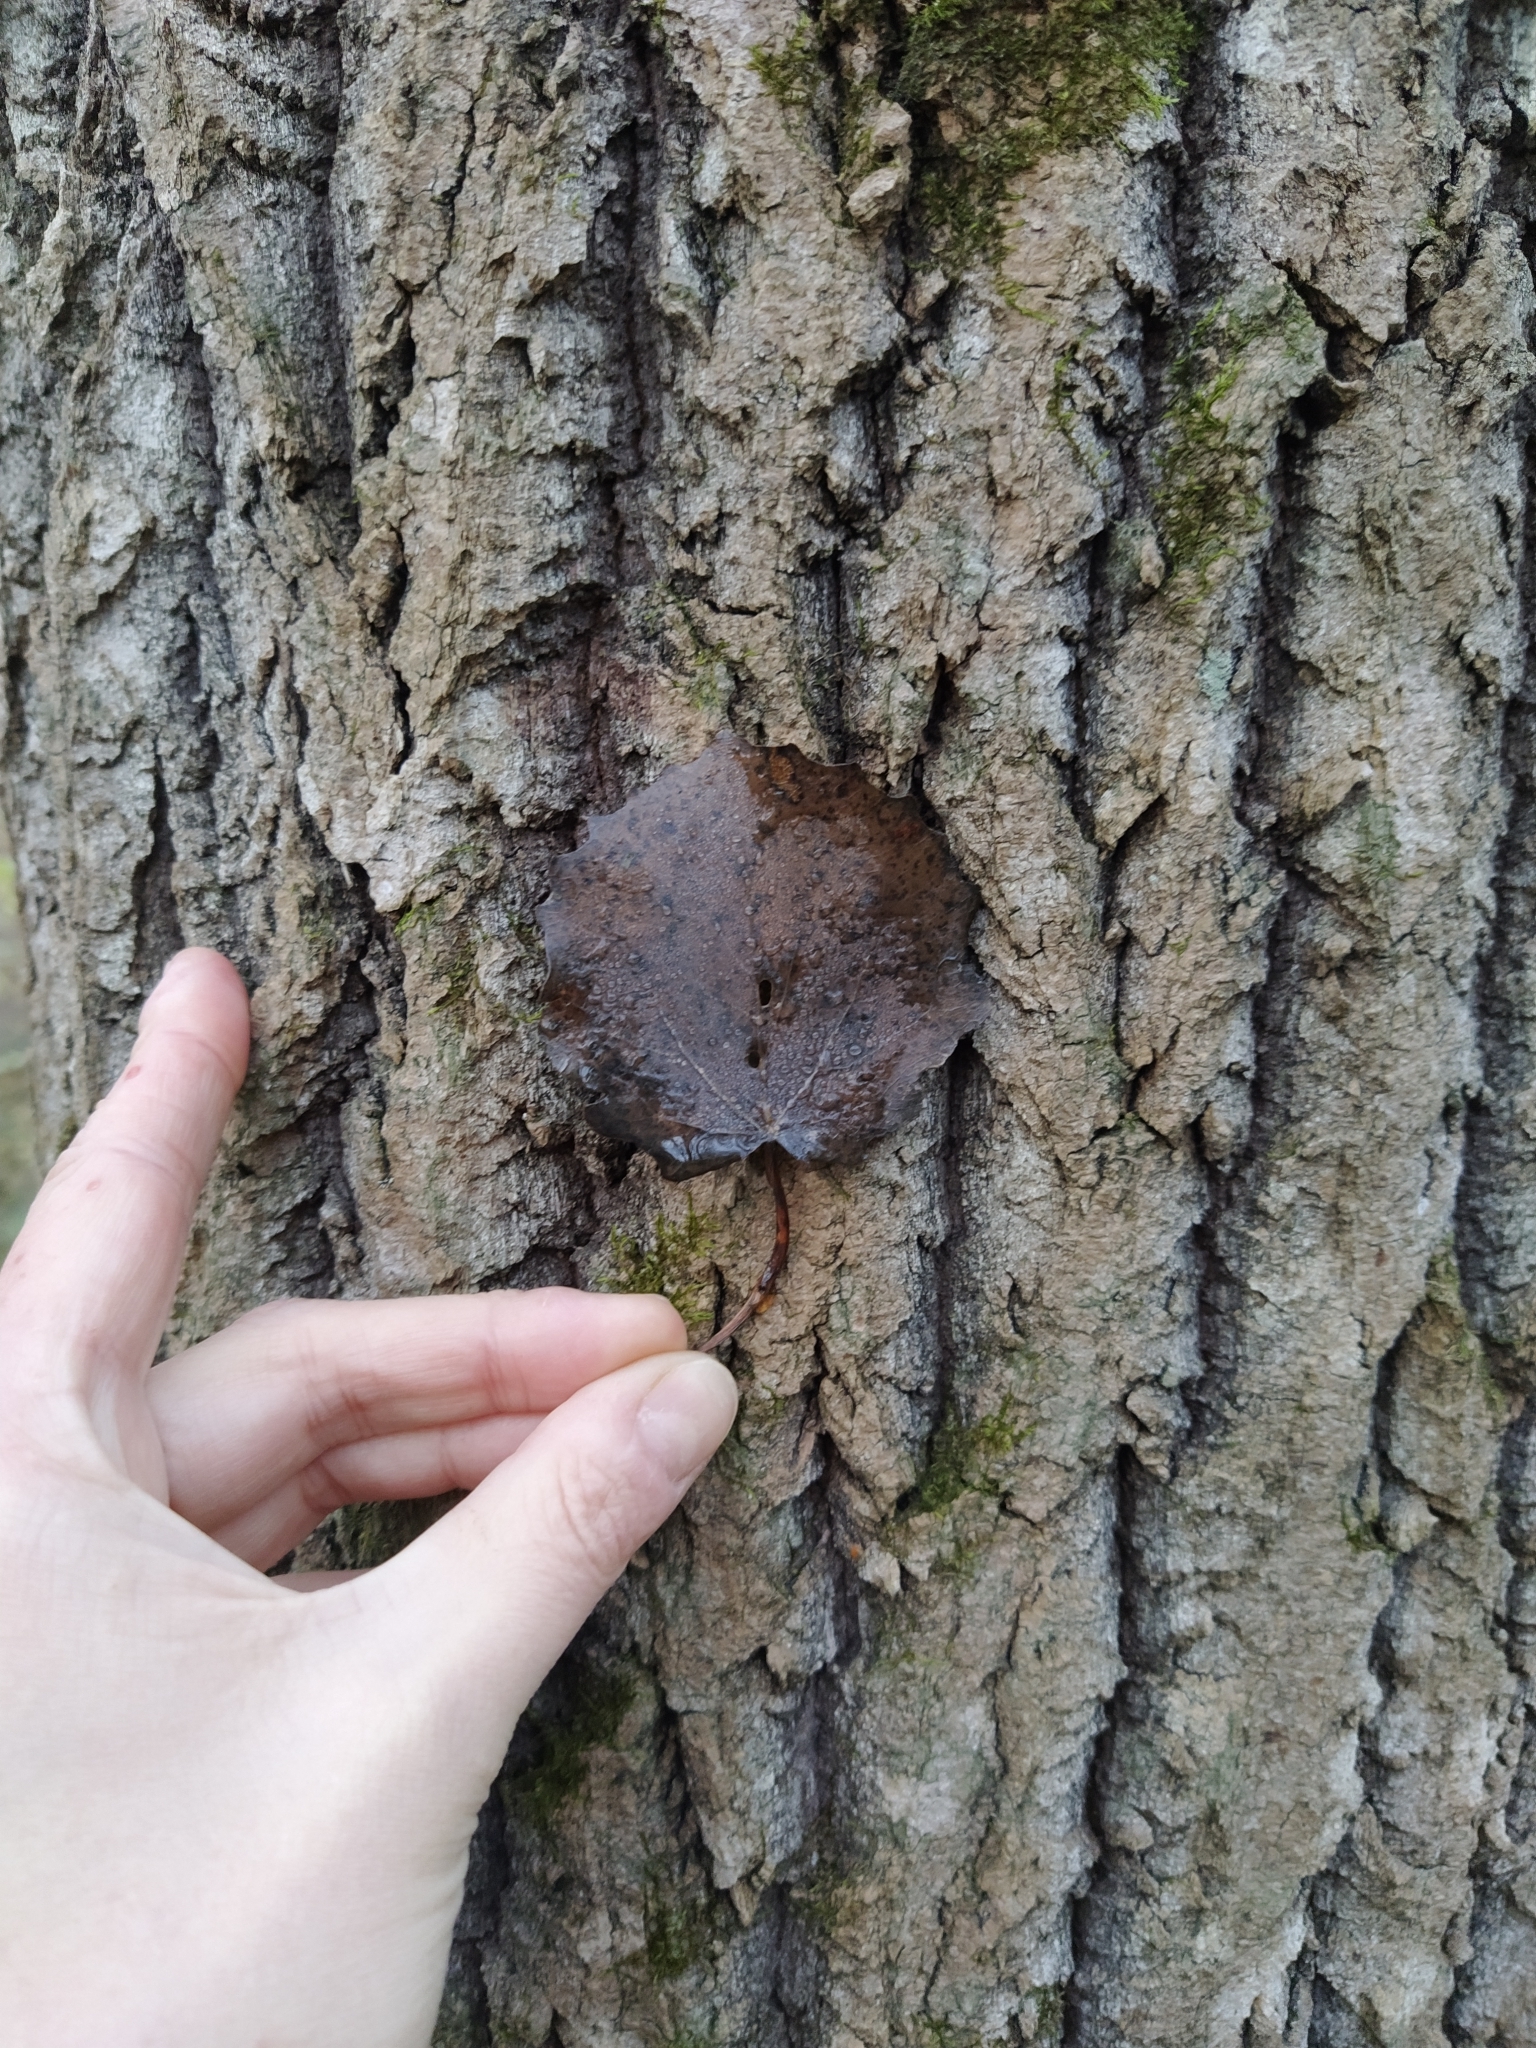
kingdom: Plantae
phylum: Tracheophyta
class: Magnoliopsida
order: Malpighiales
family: Salicaceae
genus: Populus
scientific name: Populus tremula
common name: European aspen
